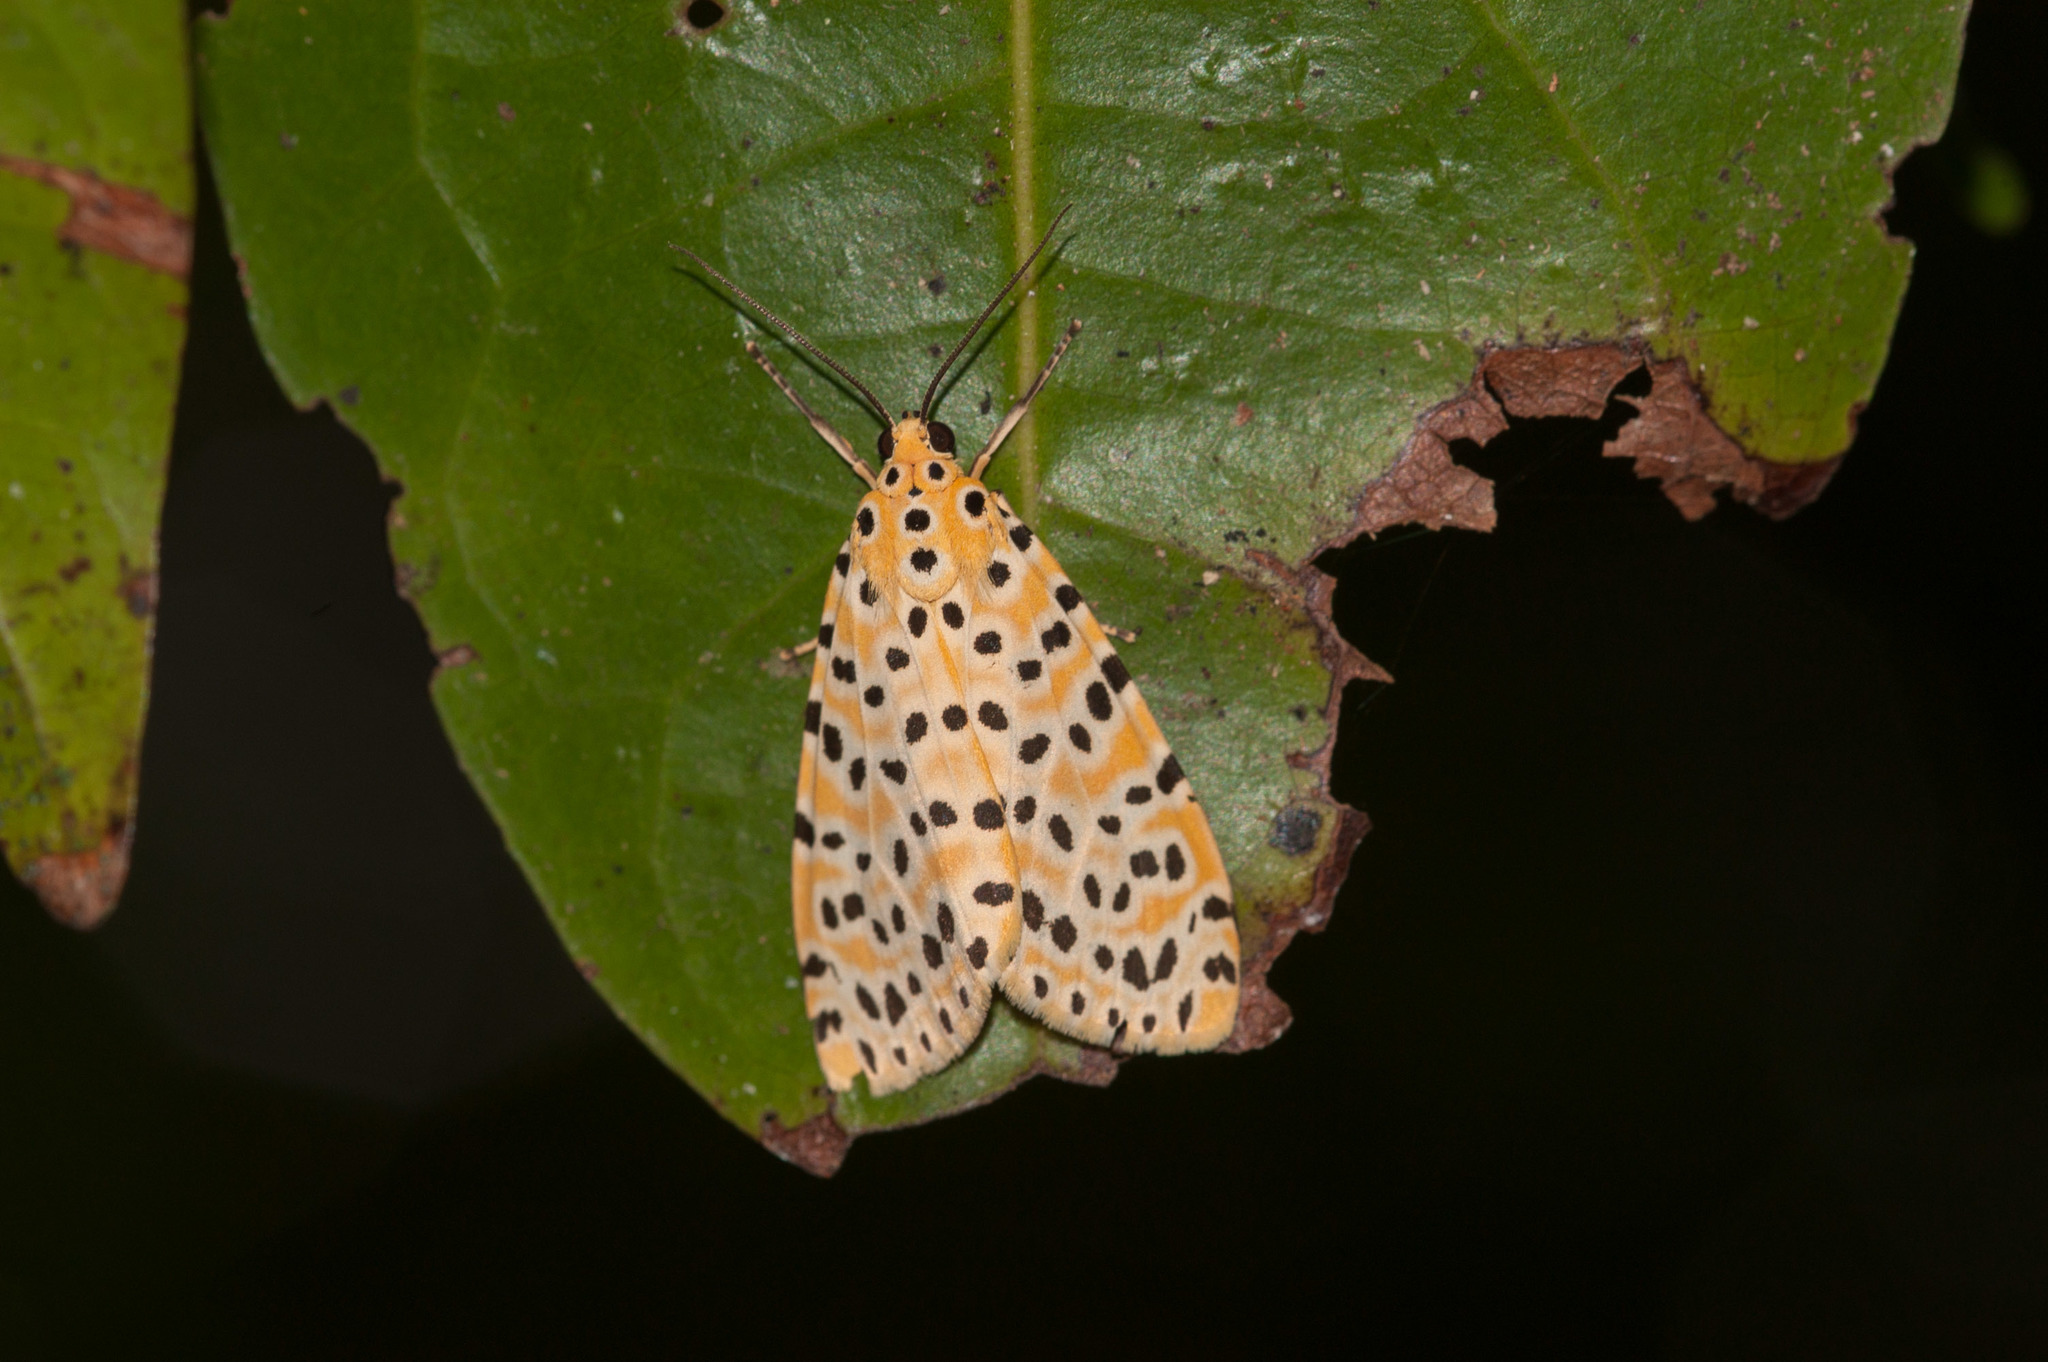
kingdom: Animalia
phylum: Arthropoda
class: Insecta
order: Lepidoptera
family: Erebidae
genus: Argina
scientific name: Argina astrea
